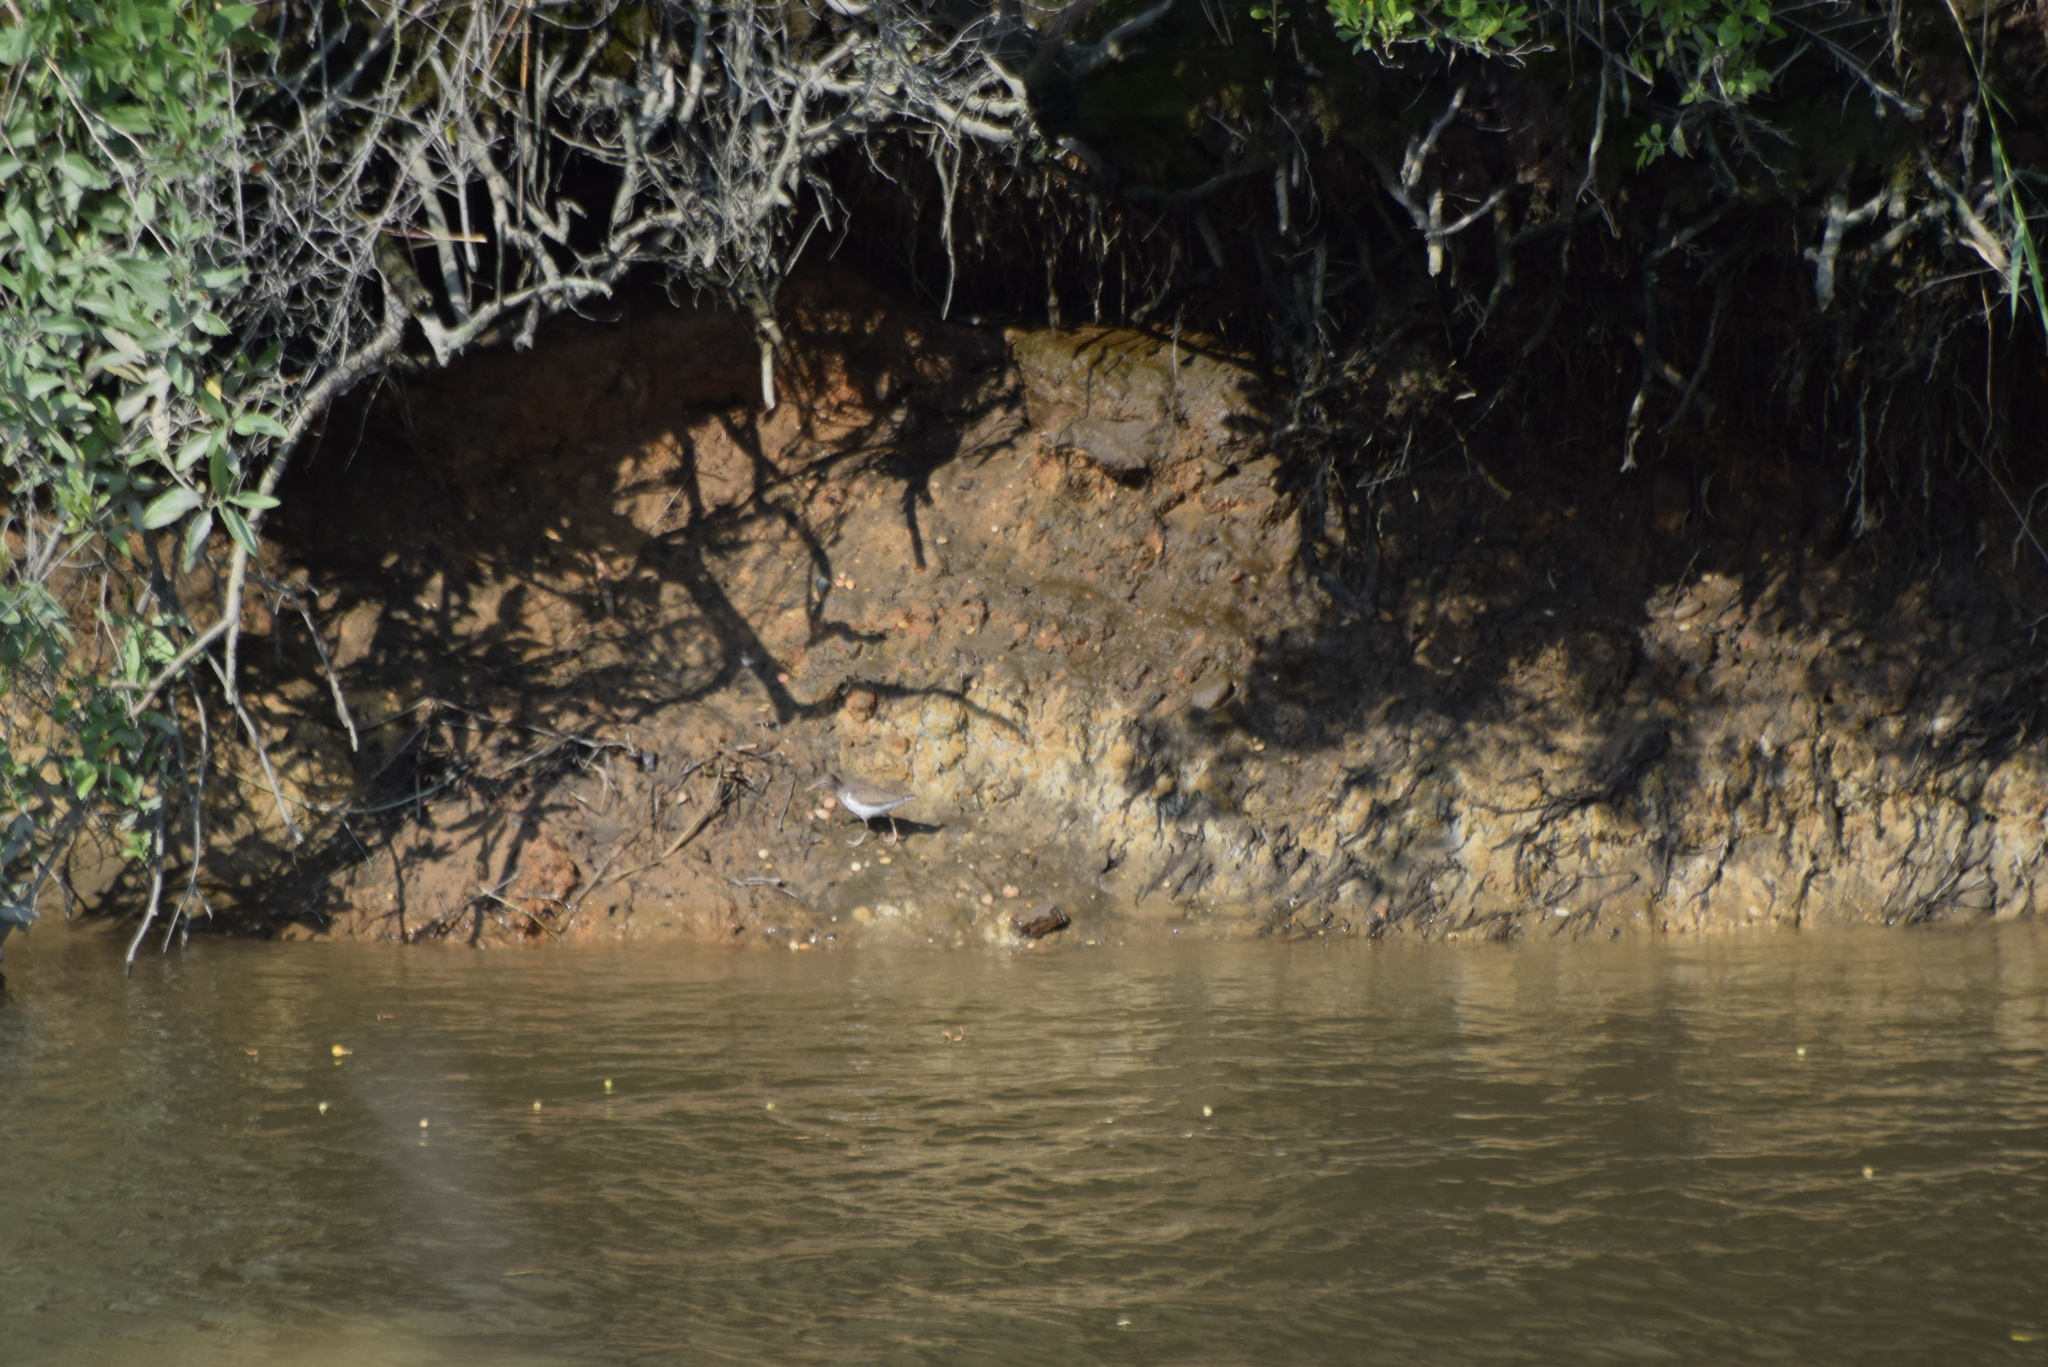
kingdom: Animalia
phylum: Chordata
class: Aves
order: Charadriiformes
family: Scolopacidae
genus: Actitis
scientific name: Actitis macularius
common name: Spotted sandpiper
